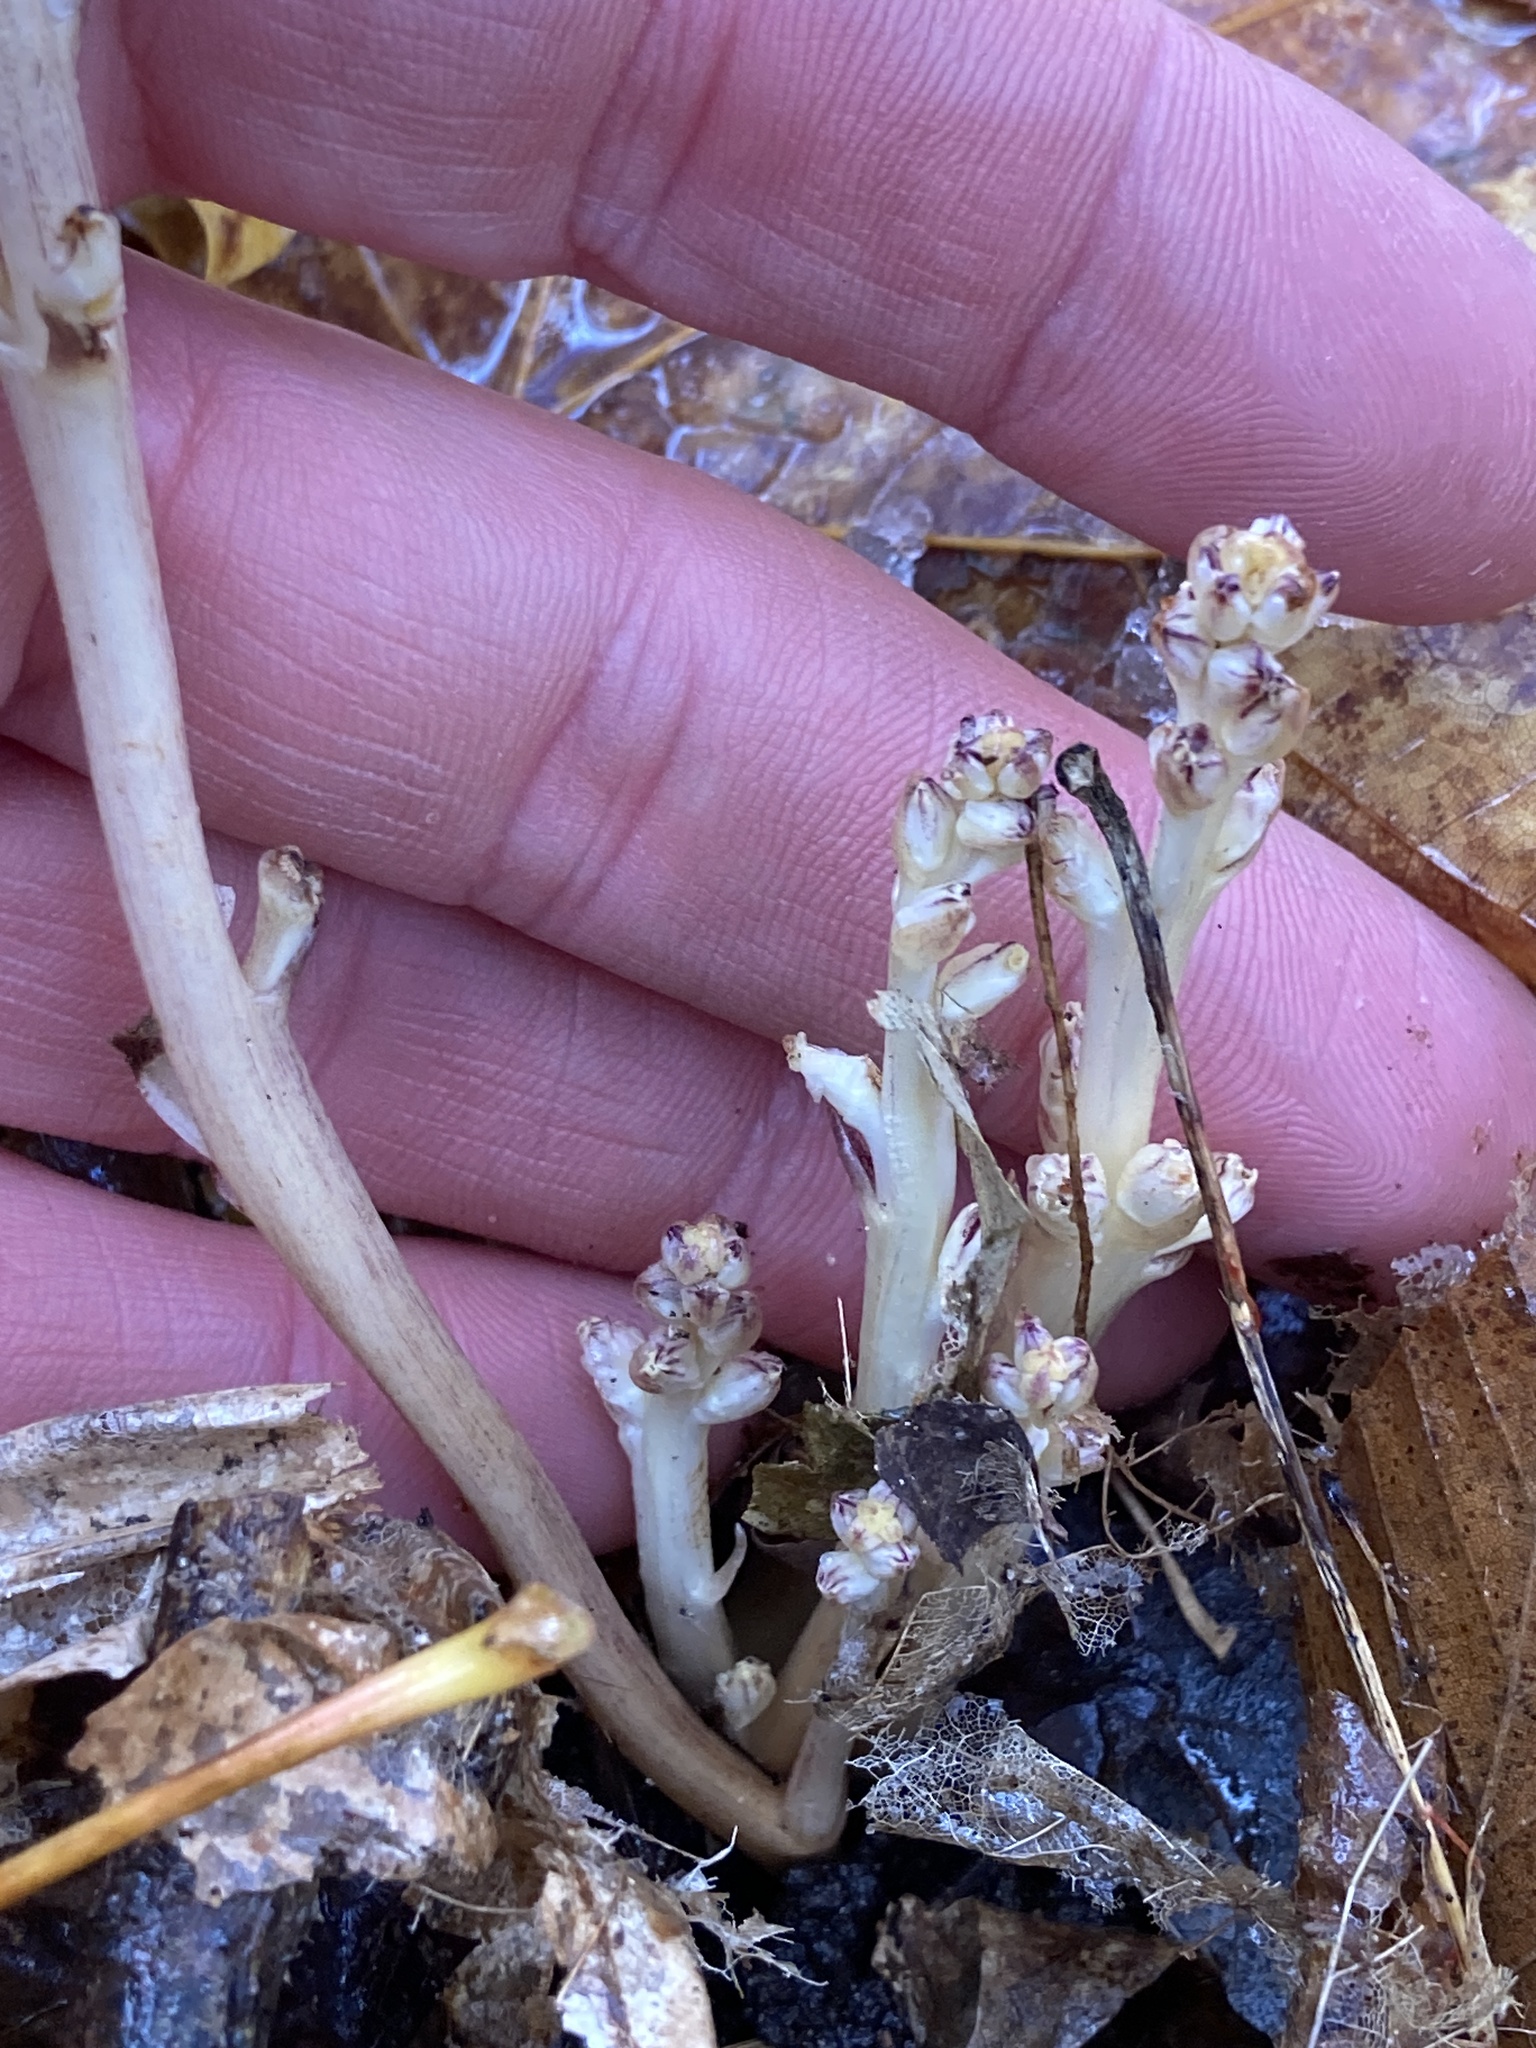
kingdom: Plantae
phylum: Tracheophyta
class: Magnoliopsida
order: Lamiales
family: Orobanchaceae
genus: Epifagus
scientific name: Epifagus virginiana
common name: Beechdrops
